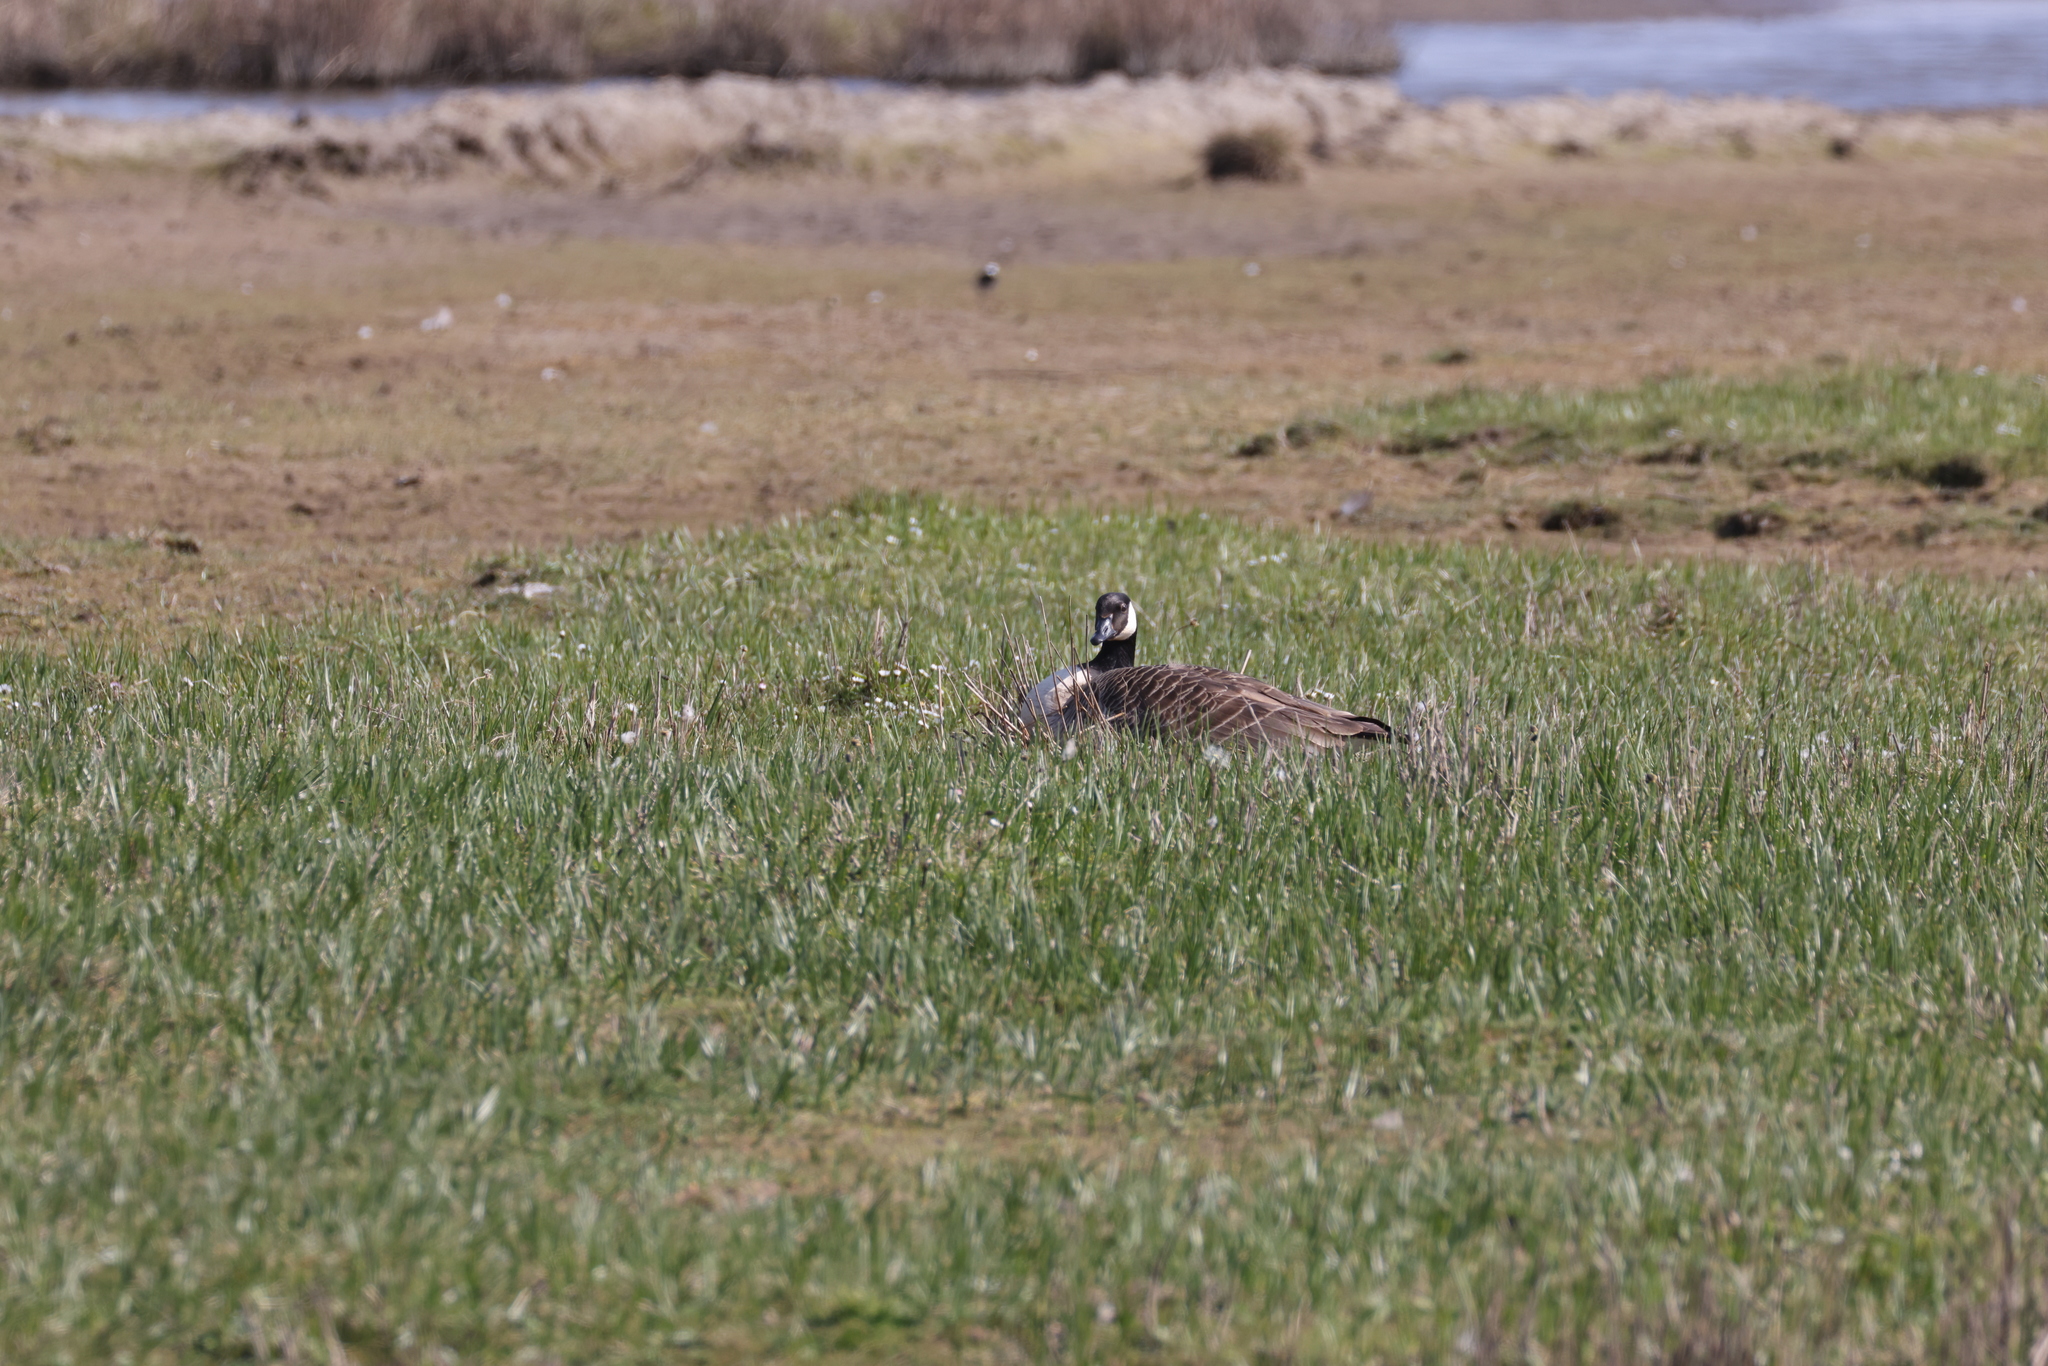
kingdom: Animalia
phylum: Chordata
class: Aves
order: Anseriformes
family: Anatidae
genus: Branta
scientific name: Branta canadensis
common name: Canada goose
